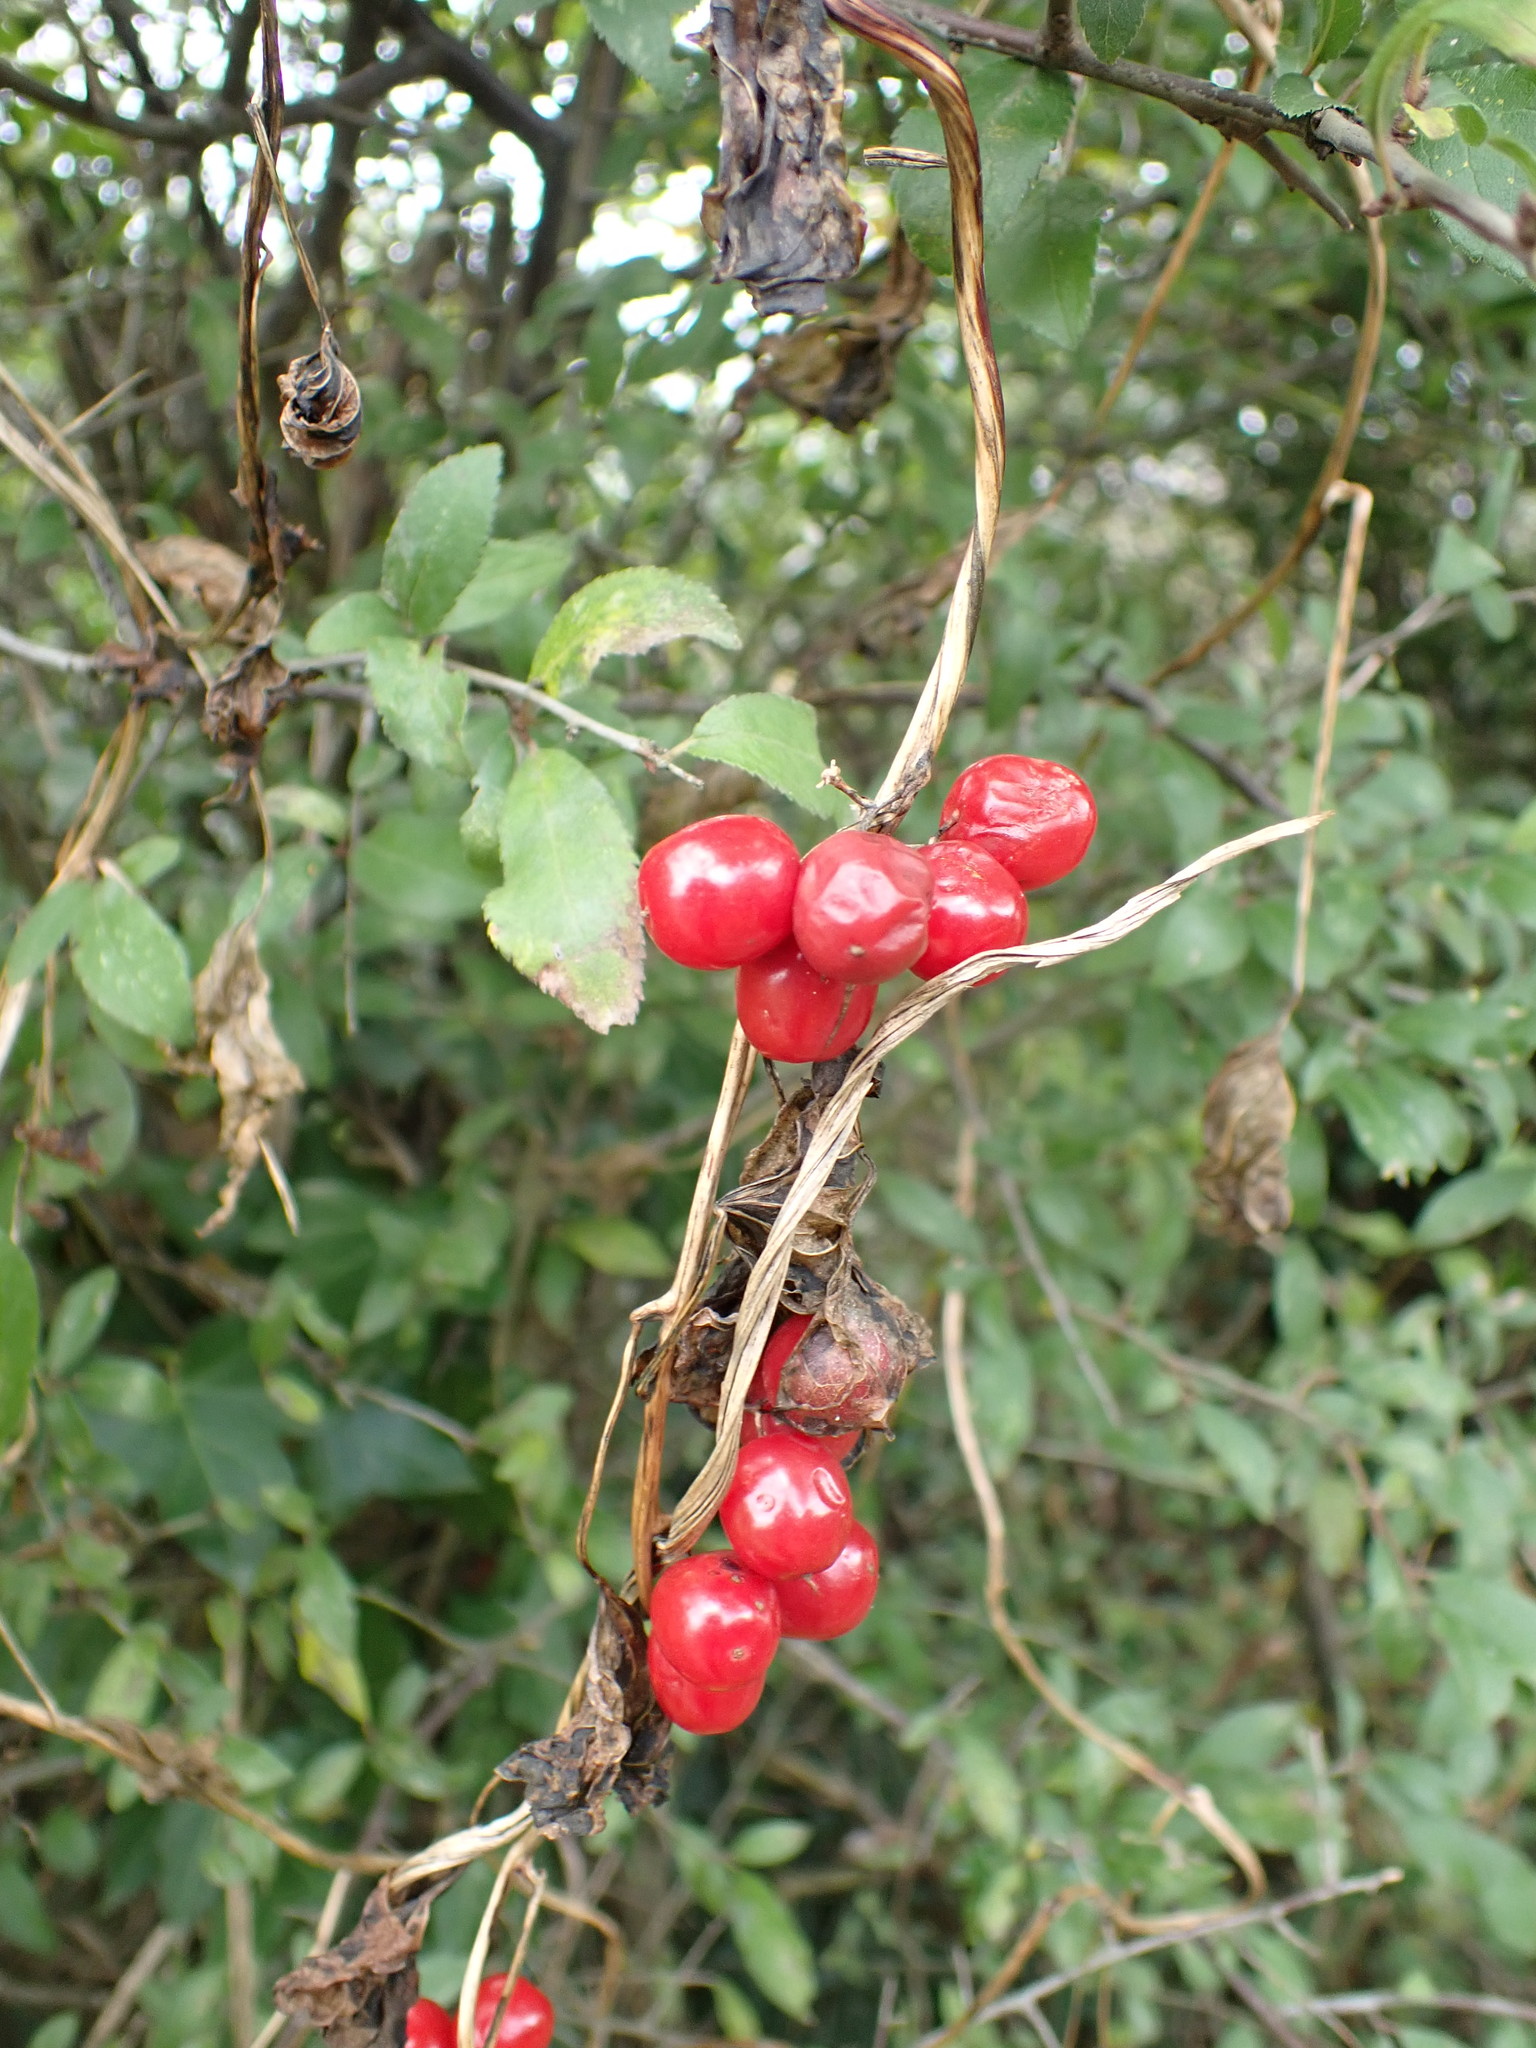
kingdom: Plantae
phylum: Tracheophyta
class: Liliopsida
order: Dioscoreales
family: Dioscoreaceae
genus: Dioscorea
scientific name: Dioscorea communis
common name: Black-bindweed
